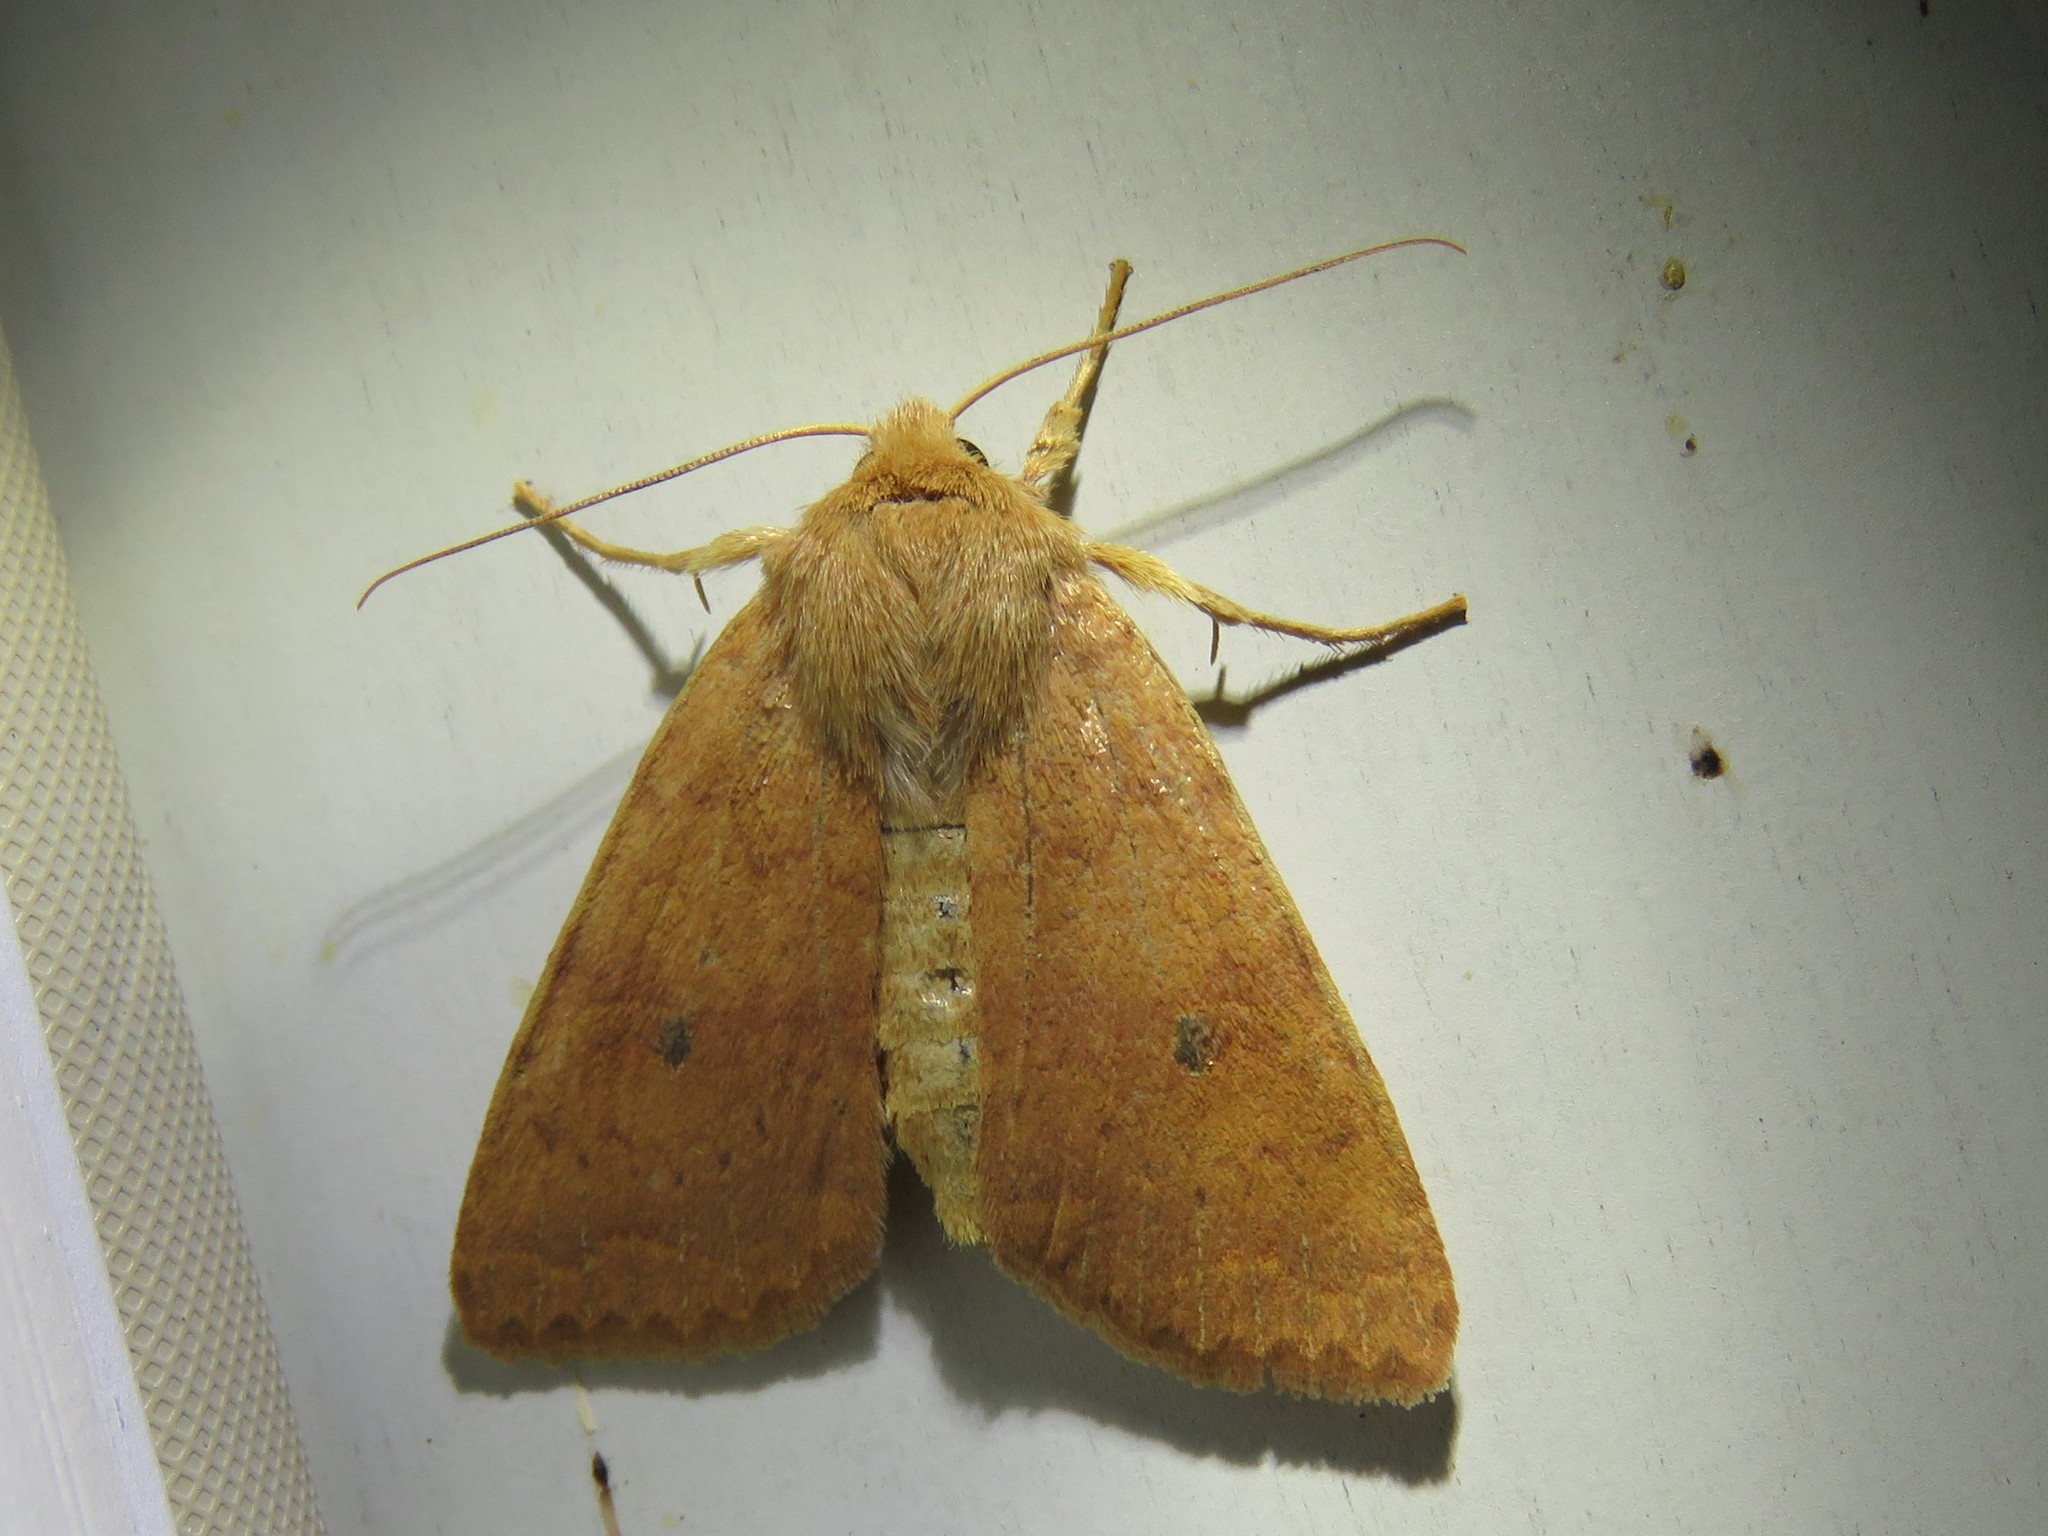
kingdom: Animalia
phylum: Arthropoda
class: Insecta
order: Lepidoptera
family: Noctuidae
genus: Agrochola
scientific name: Agrochola bicolorago
